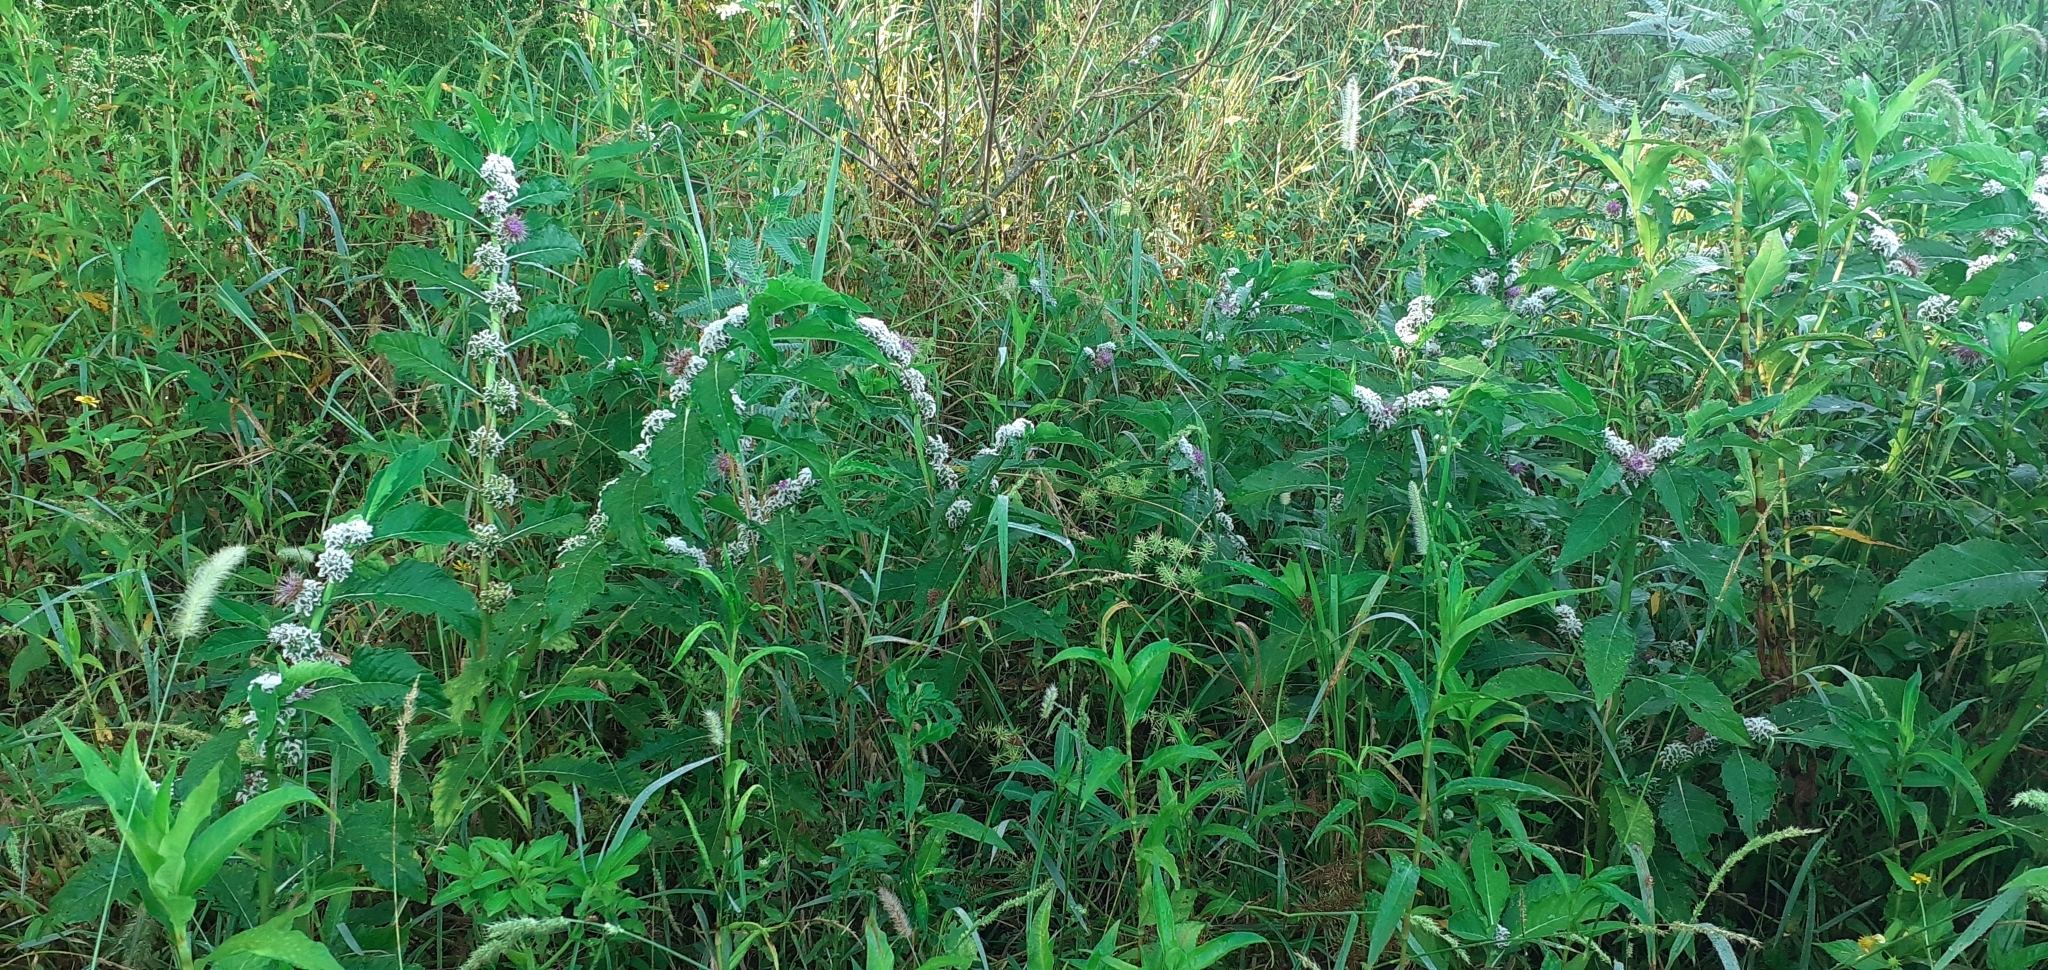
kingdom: Plantae
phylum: Tracheophyta
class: Magnoliopsida
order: Asterales
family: Asteraceae
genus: Pacourina
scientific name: Pacourina edulis
